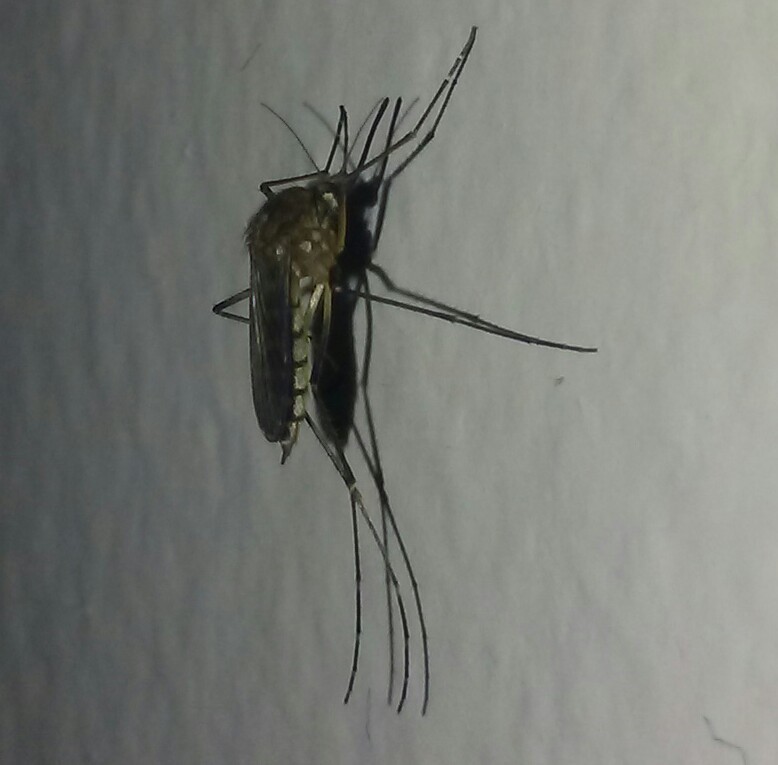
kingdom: Animalia
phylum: Arthropoda
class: Insecta
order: Diptera
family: Culicidae
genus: Aedes
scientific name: Aedes vexans
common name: Inland floodwater mosquito
